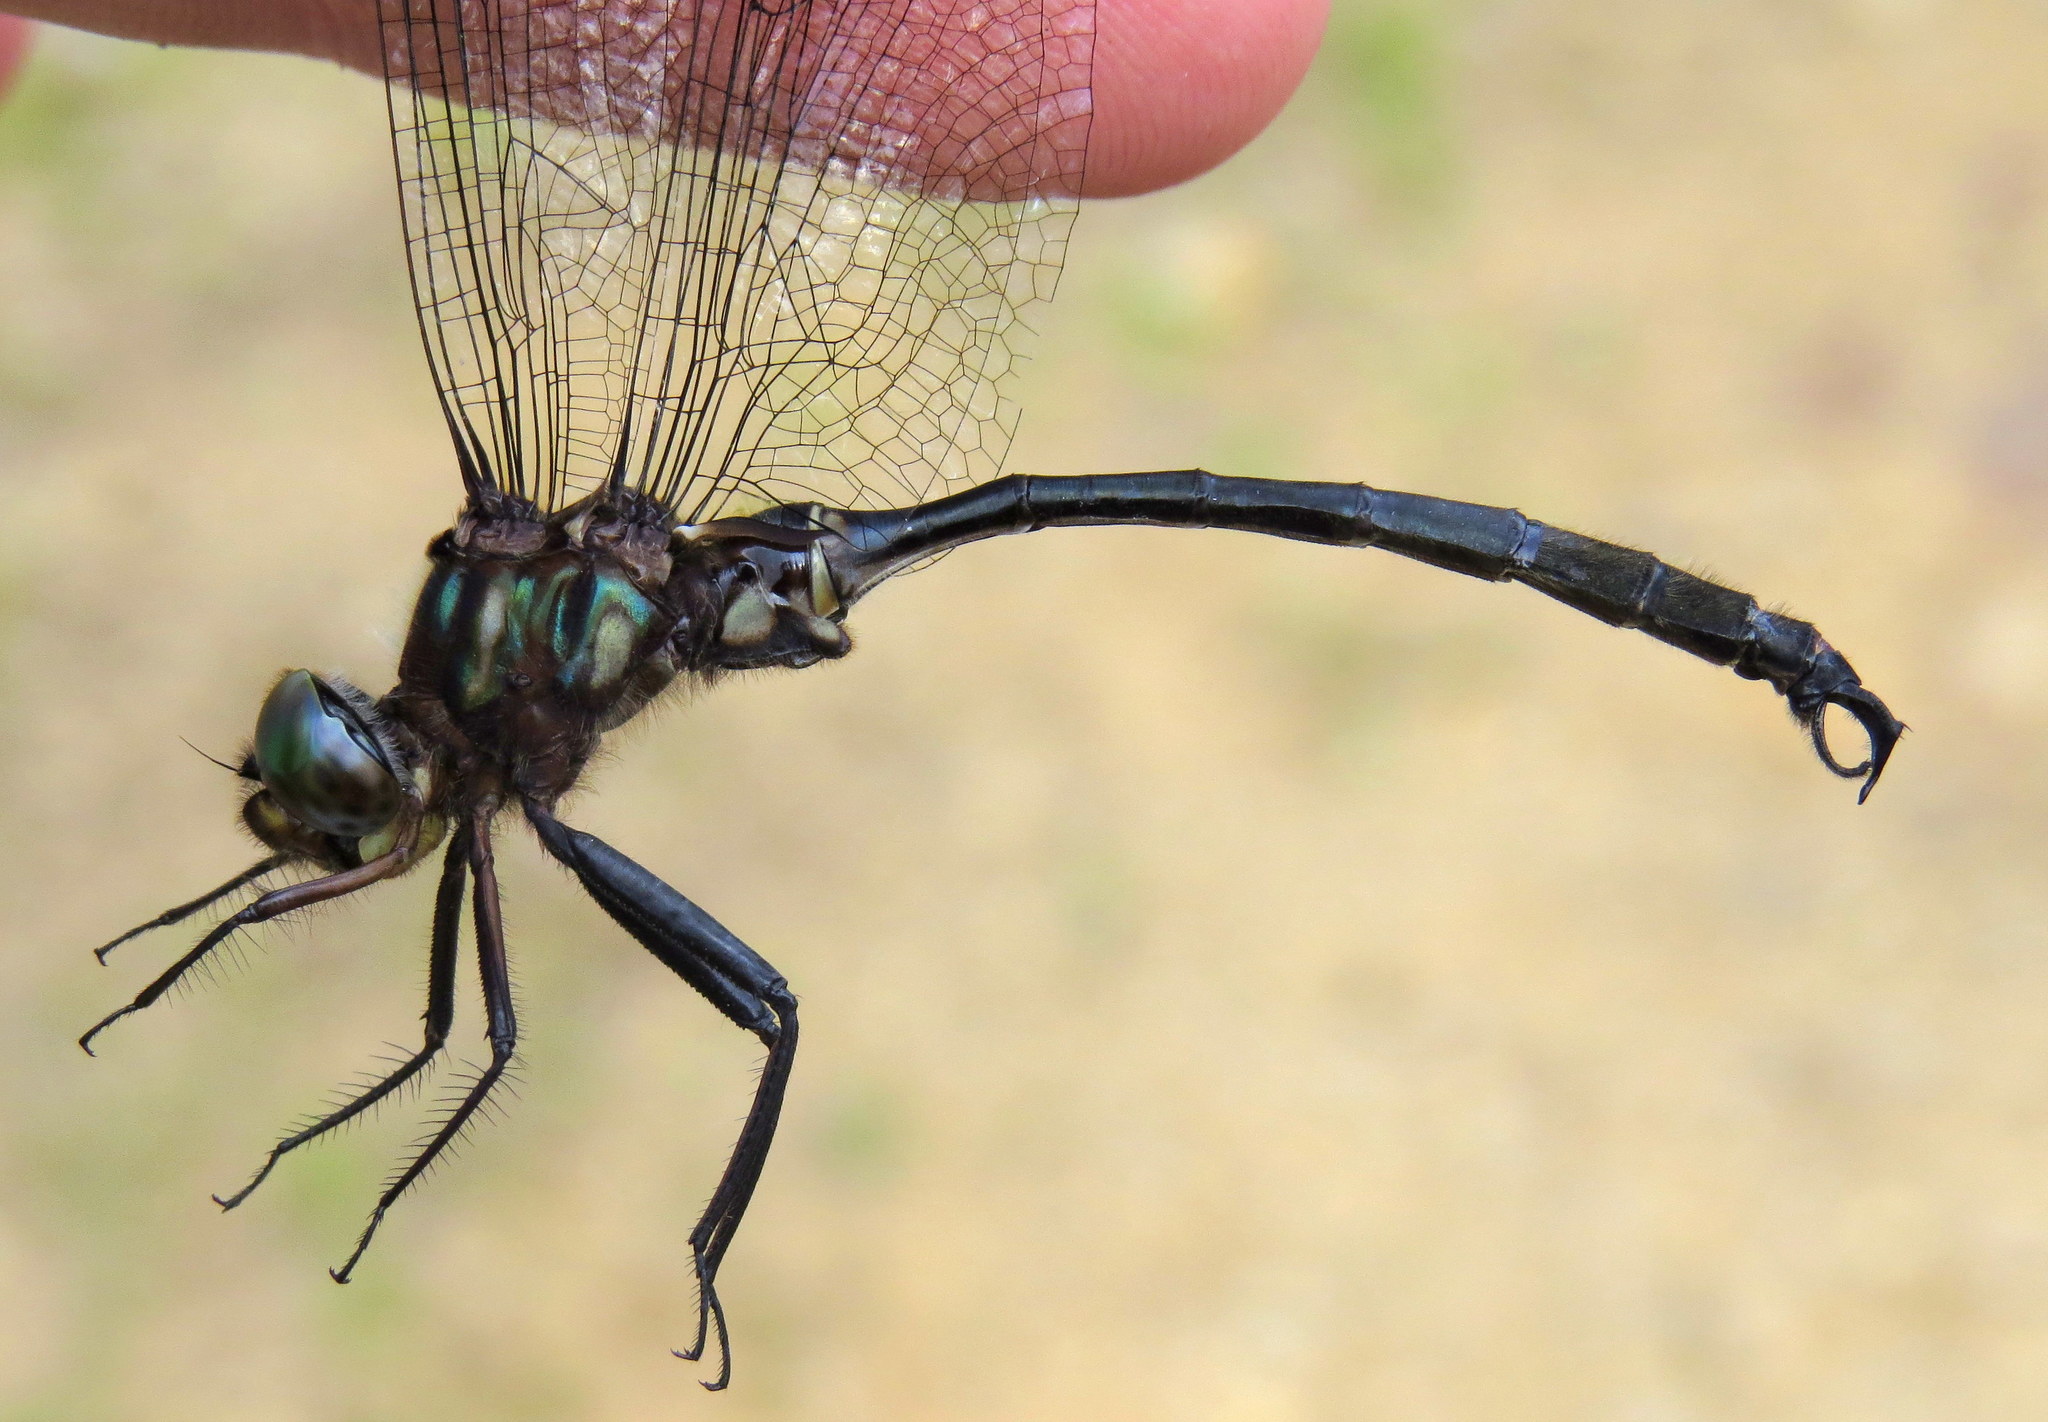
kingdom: Animalia
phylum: Arthropoda
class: Insecta
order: Odonata
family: Corduliidae
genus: Somatochlora
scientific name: Somatochlora tenebrosa
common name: Clamp-tipped emerald
